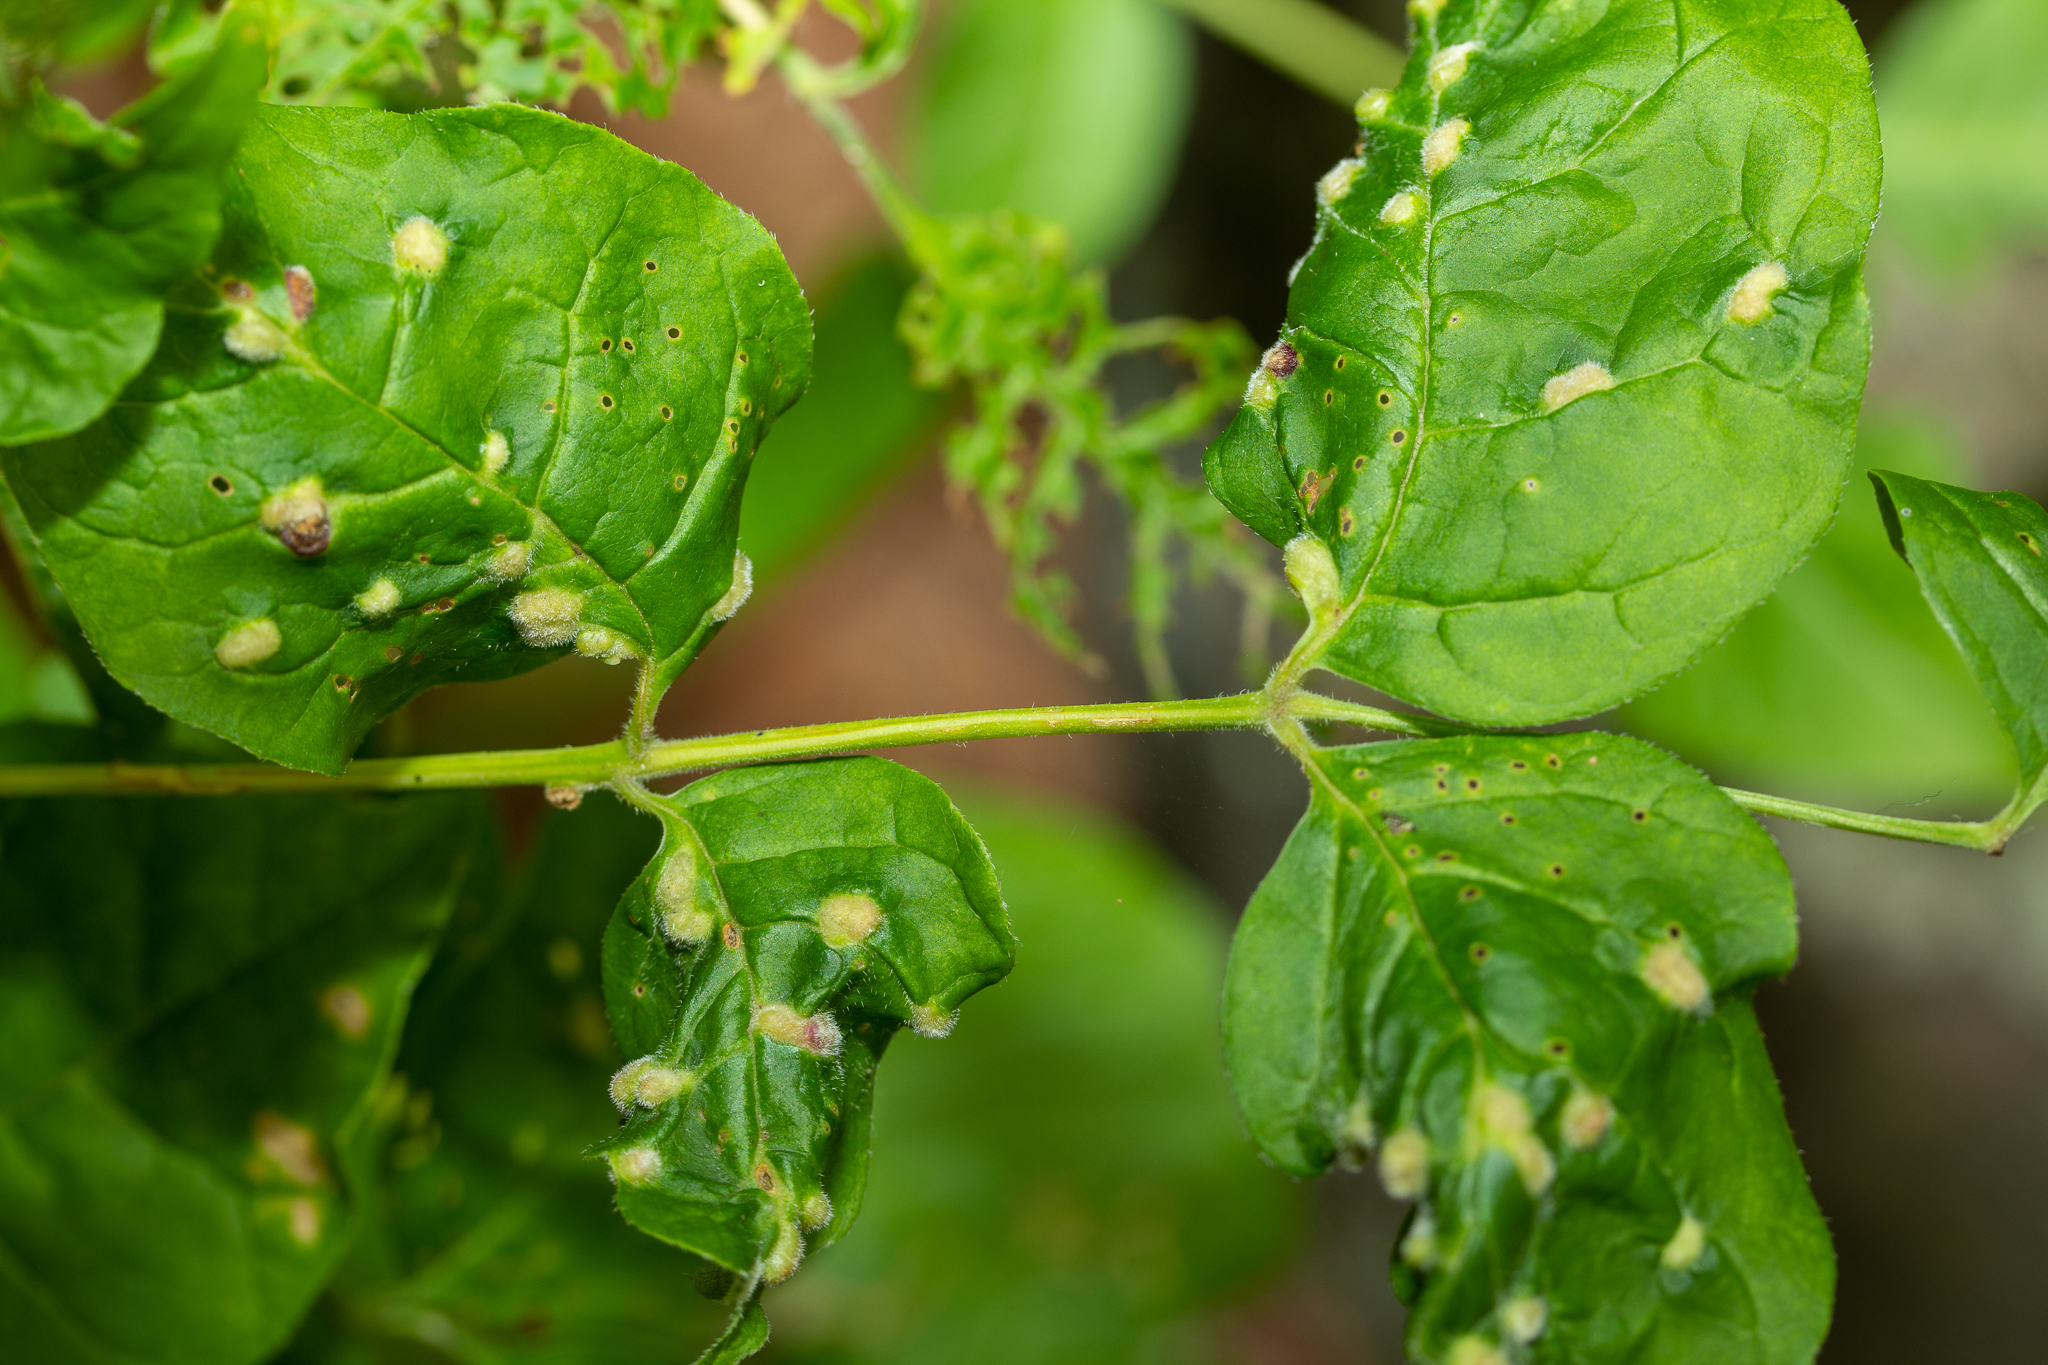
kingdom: Animalia
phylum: Arthropoda
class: Arachnida
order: Trombidiformes
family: Eriophyidae
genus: Aceria
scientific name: Aceria fraxinicola
